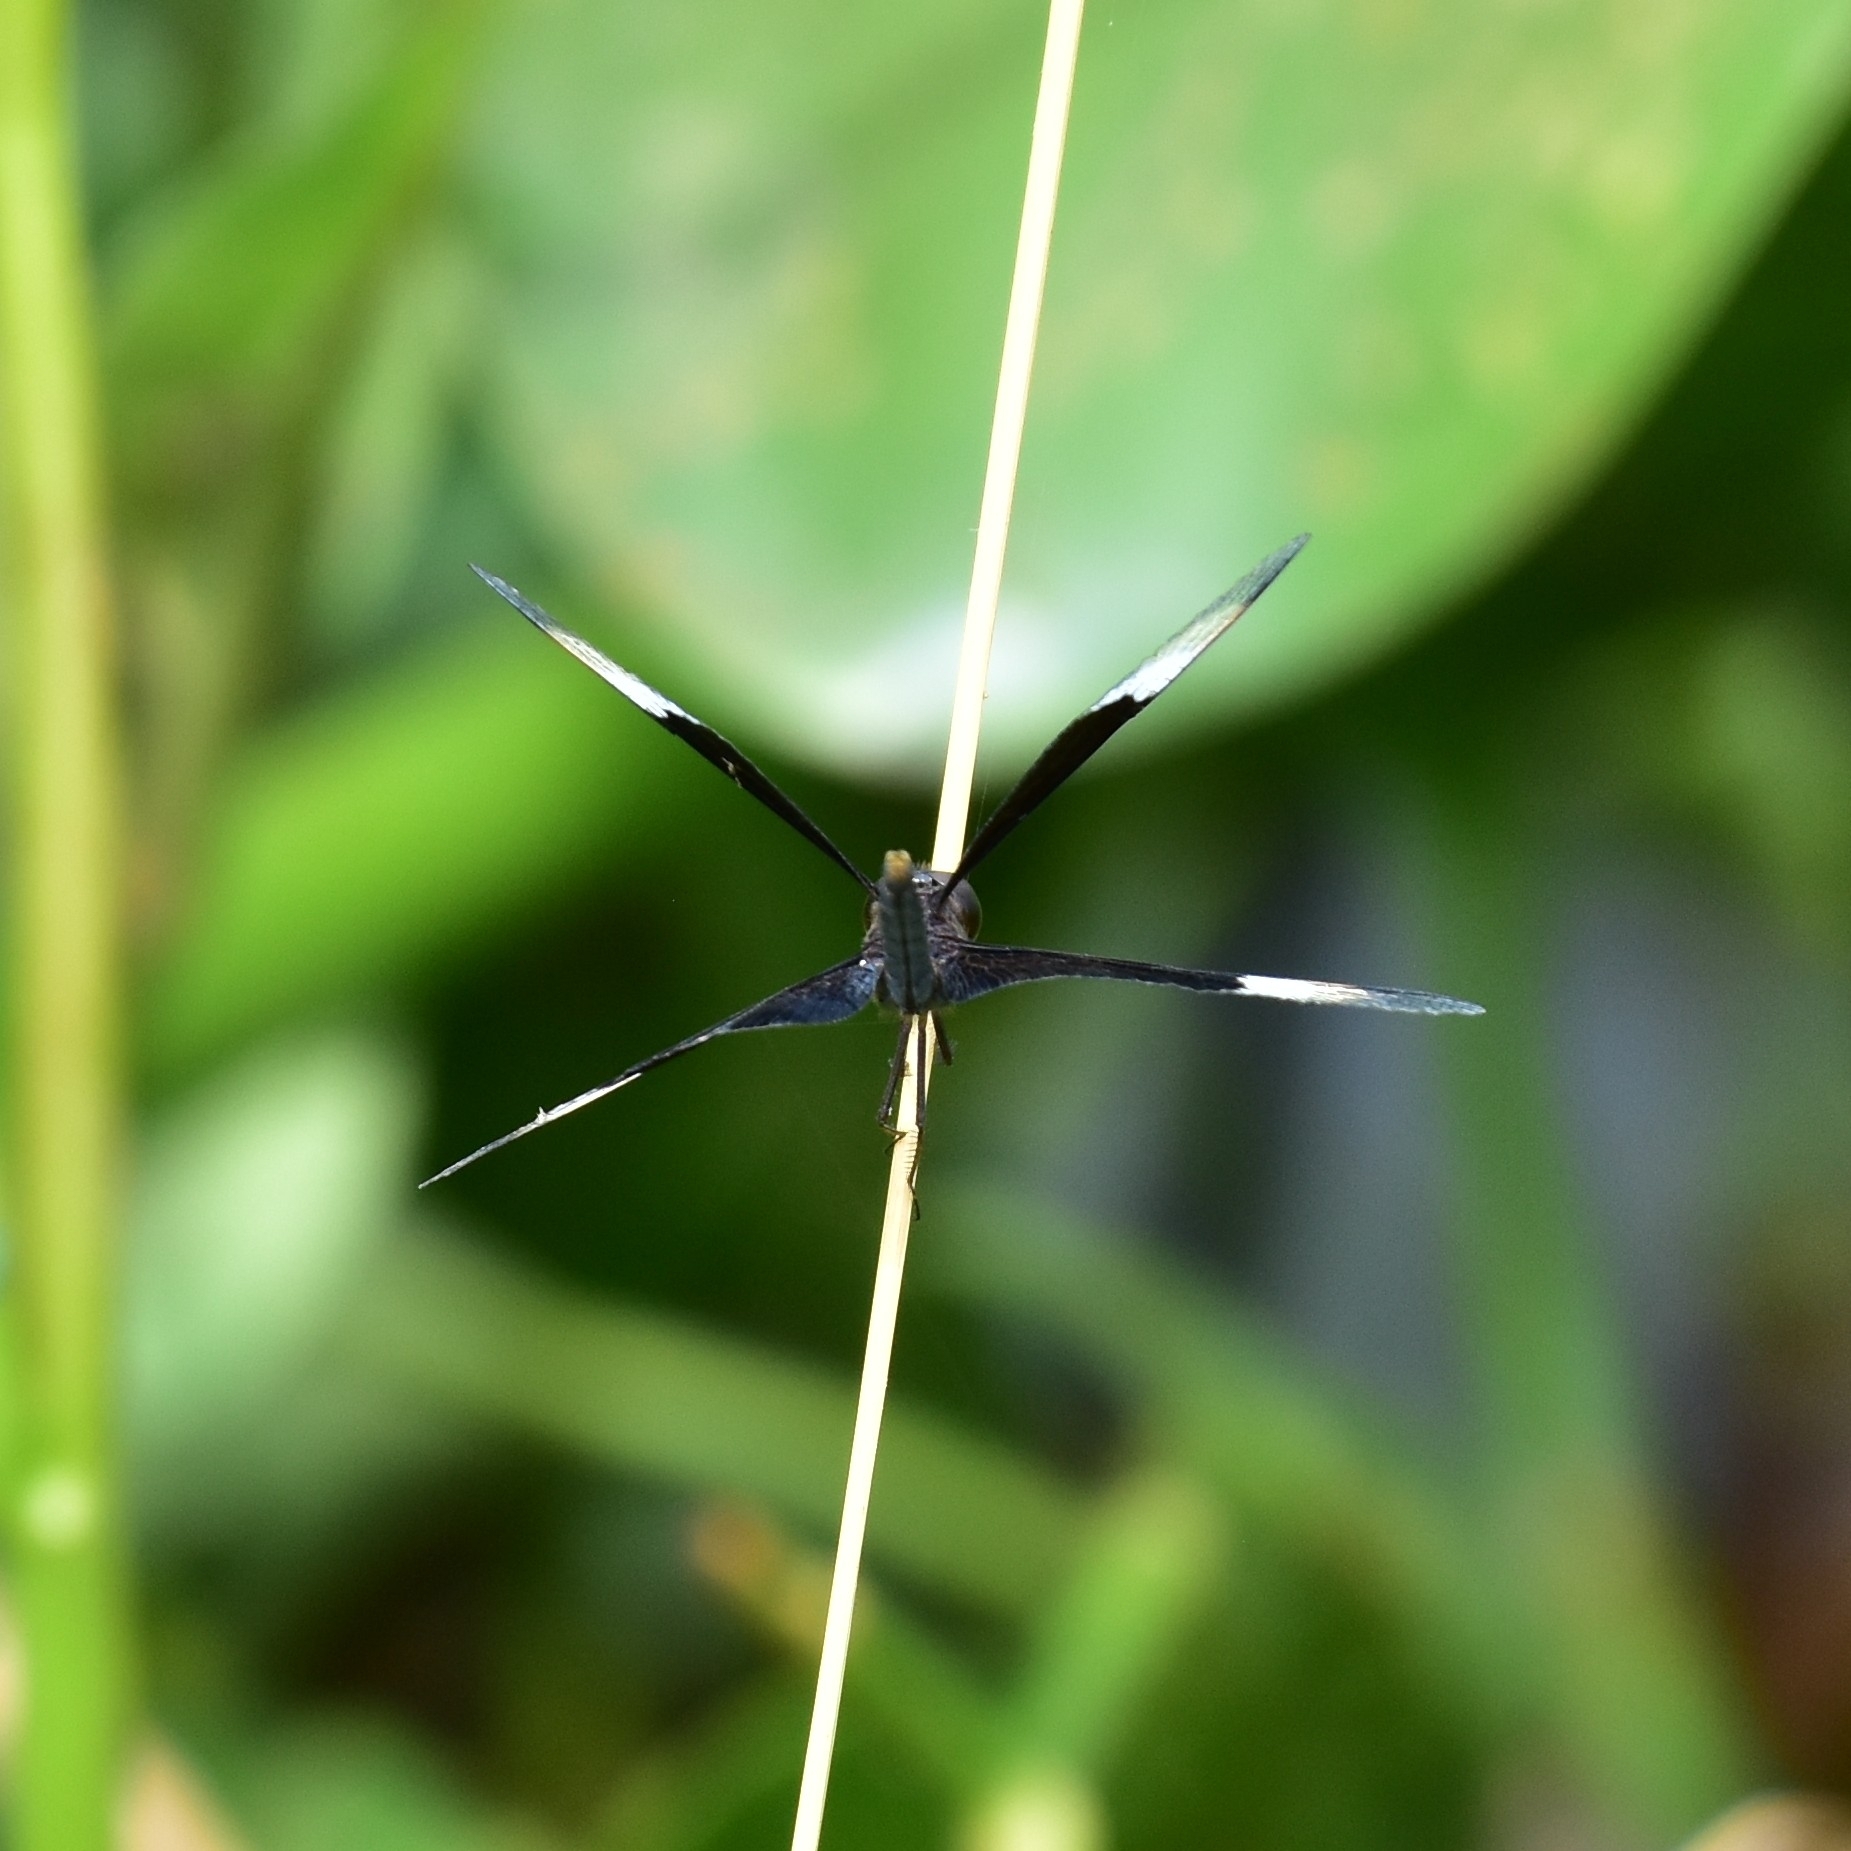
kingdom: Animalia
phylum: Arthropoda
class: Insecta
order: Odonata
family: Libellulidae
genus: Neurothemis
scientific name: Neurothemis tullia
